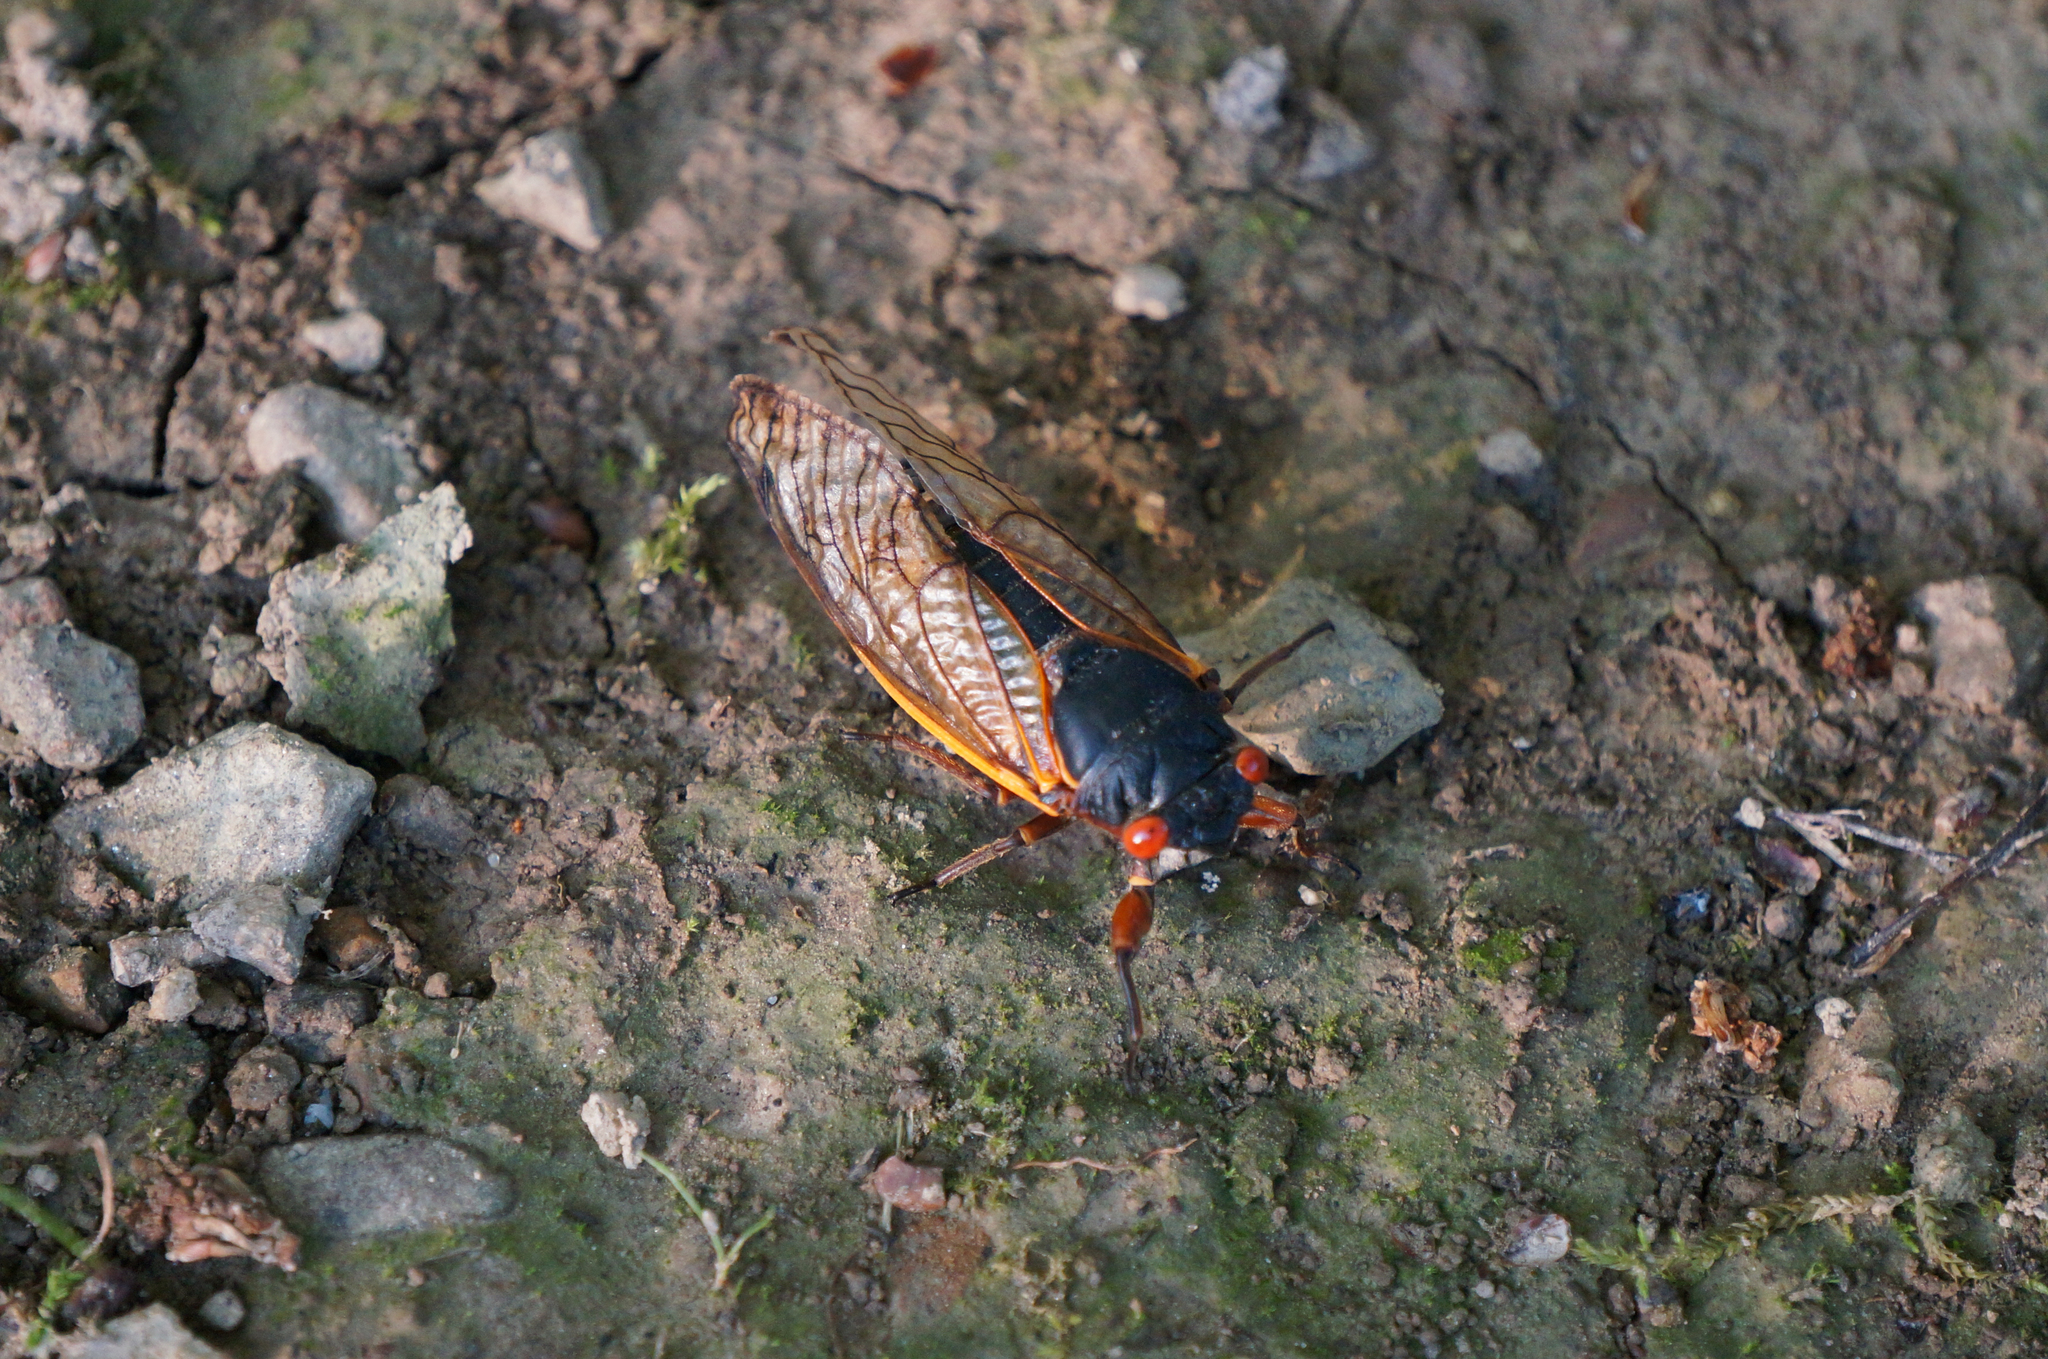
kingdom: Animalia
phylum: Arthropoda
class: Insecta
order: Hemiptera
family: Cicadidae
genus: Magicicada
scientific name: Magicicada septendecim
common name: Periodical cicada
